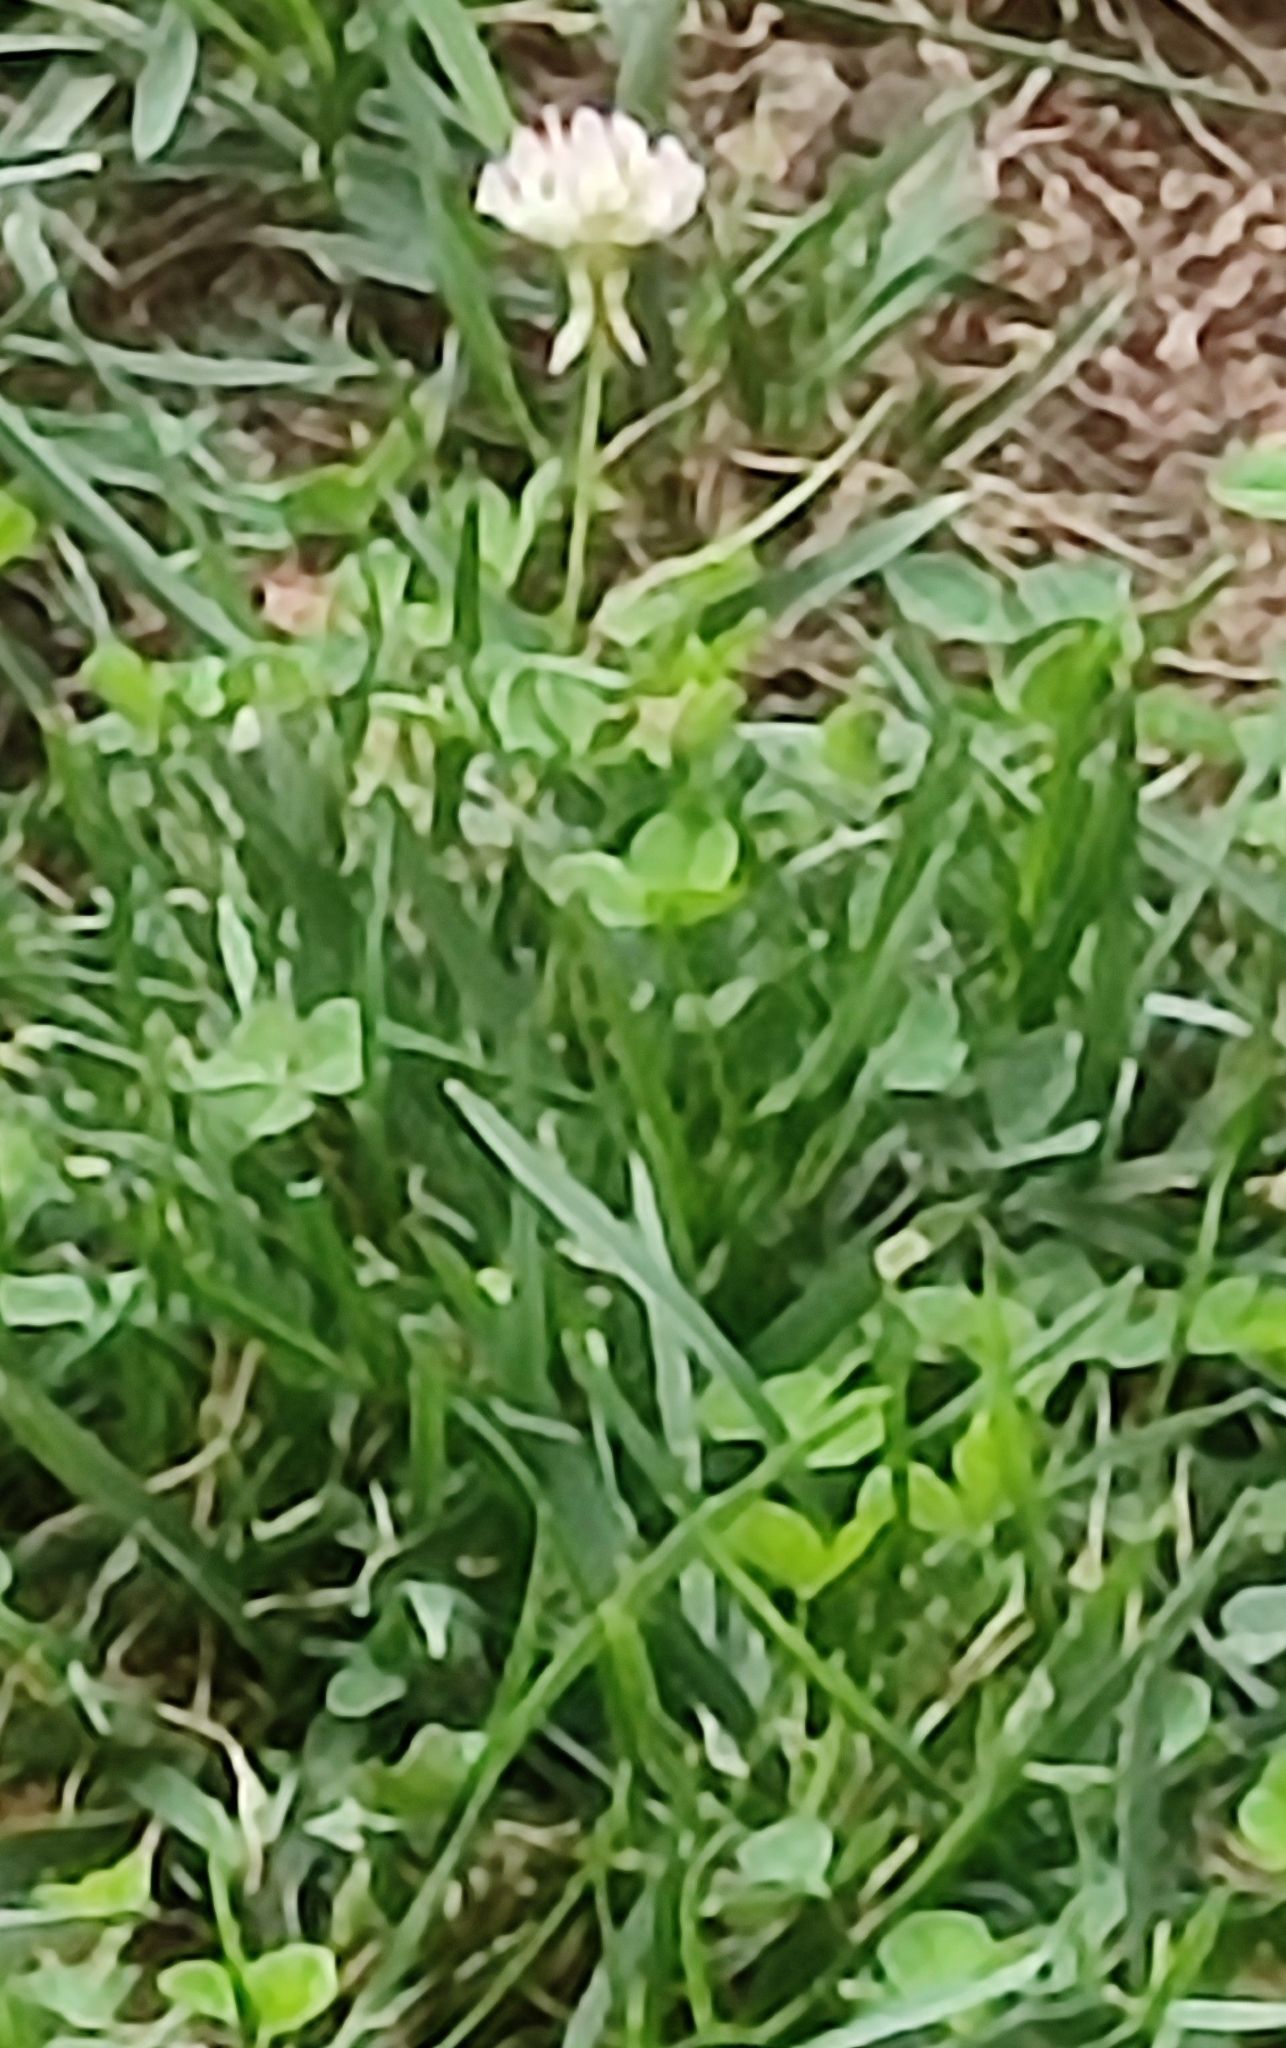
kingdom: Plantae
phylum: Tracheophyta
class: Magnoliopsida
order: Fabales
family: Fabaceae
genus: Trifolium
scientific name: Trifolium repens
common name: White clover
